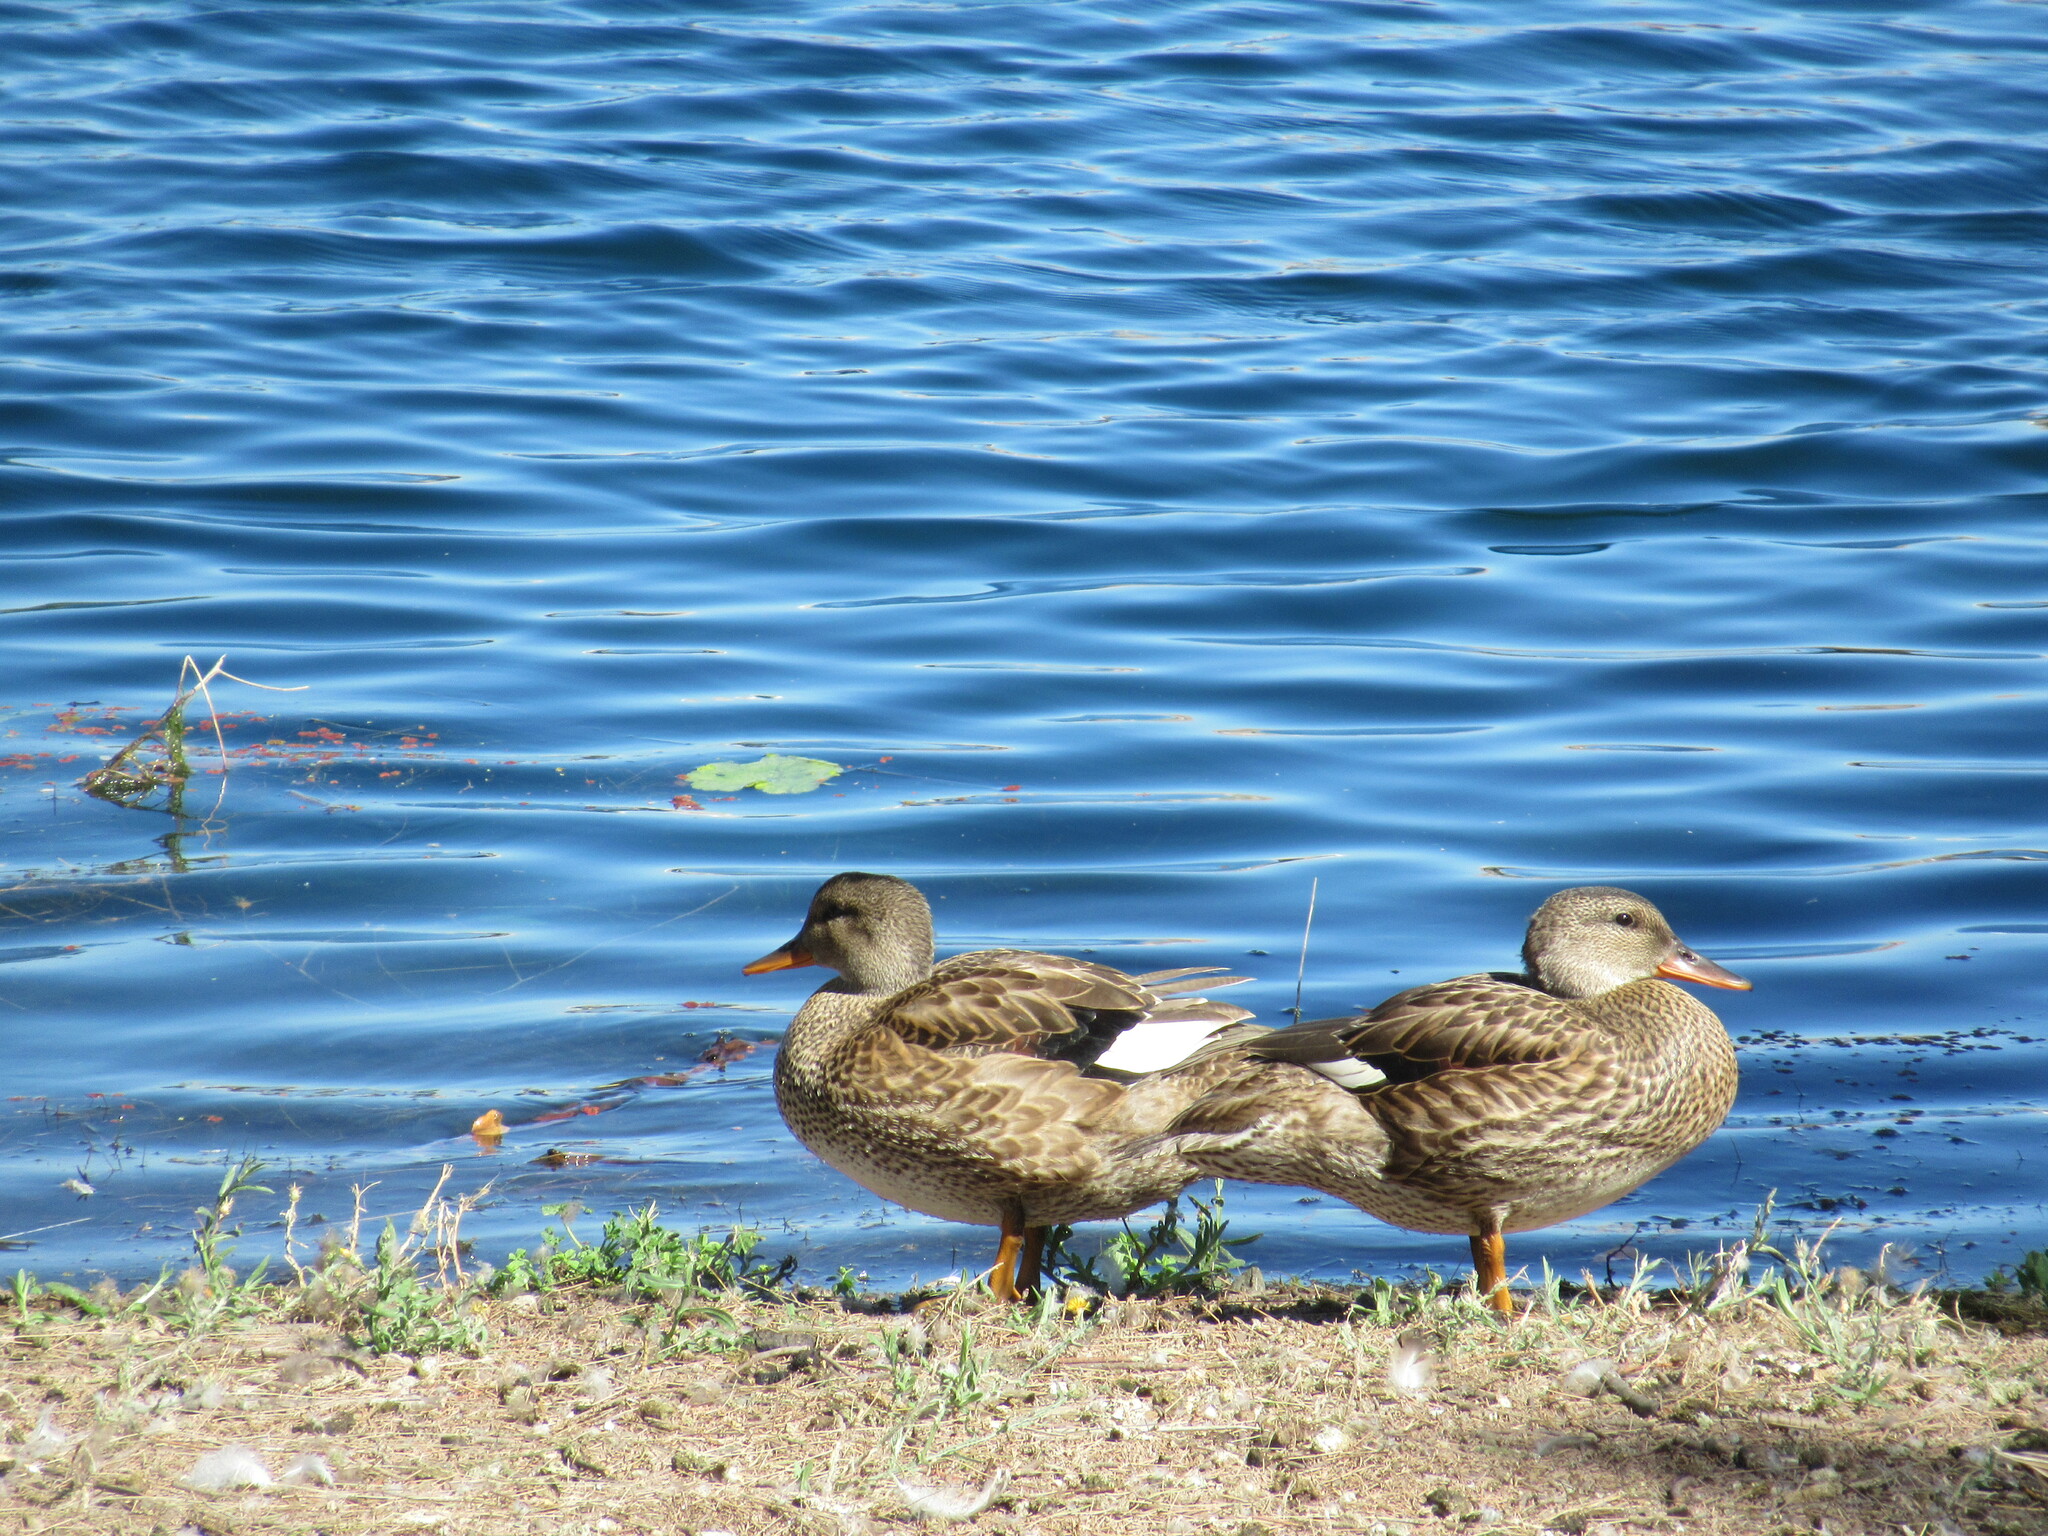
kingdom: Animalia
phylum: Chordata
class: Aves
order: Anseriformes
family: Anatidae
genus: Mareca
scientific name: Mareca strepera
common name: Gadwall
